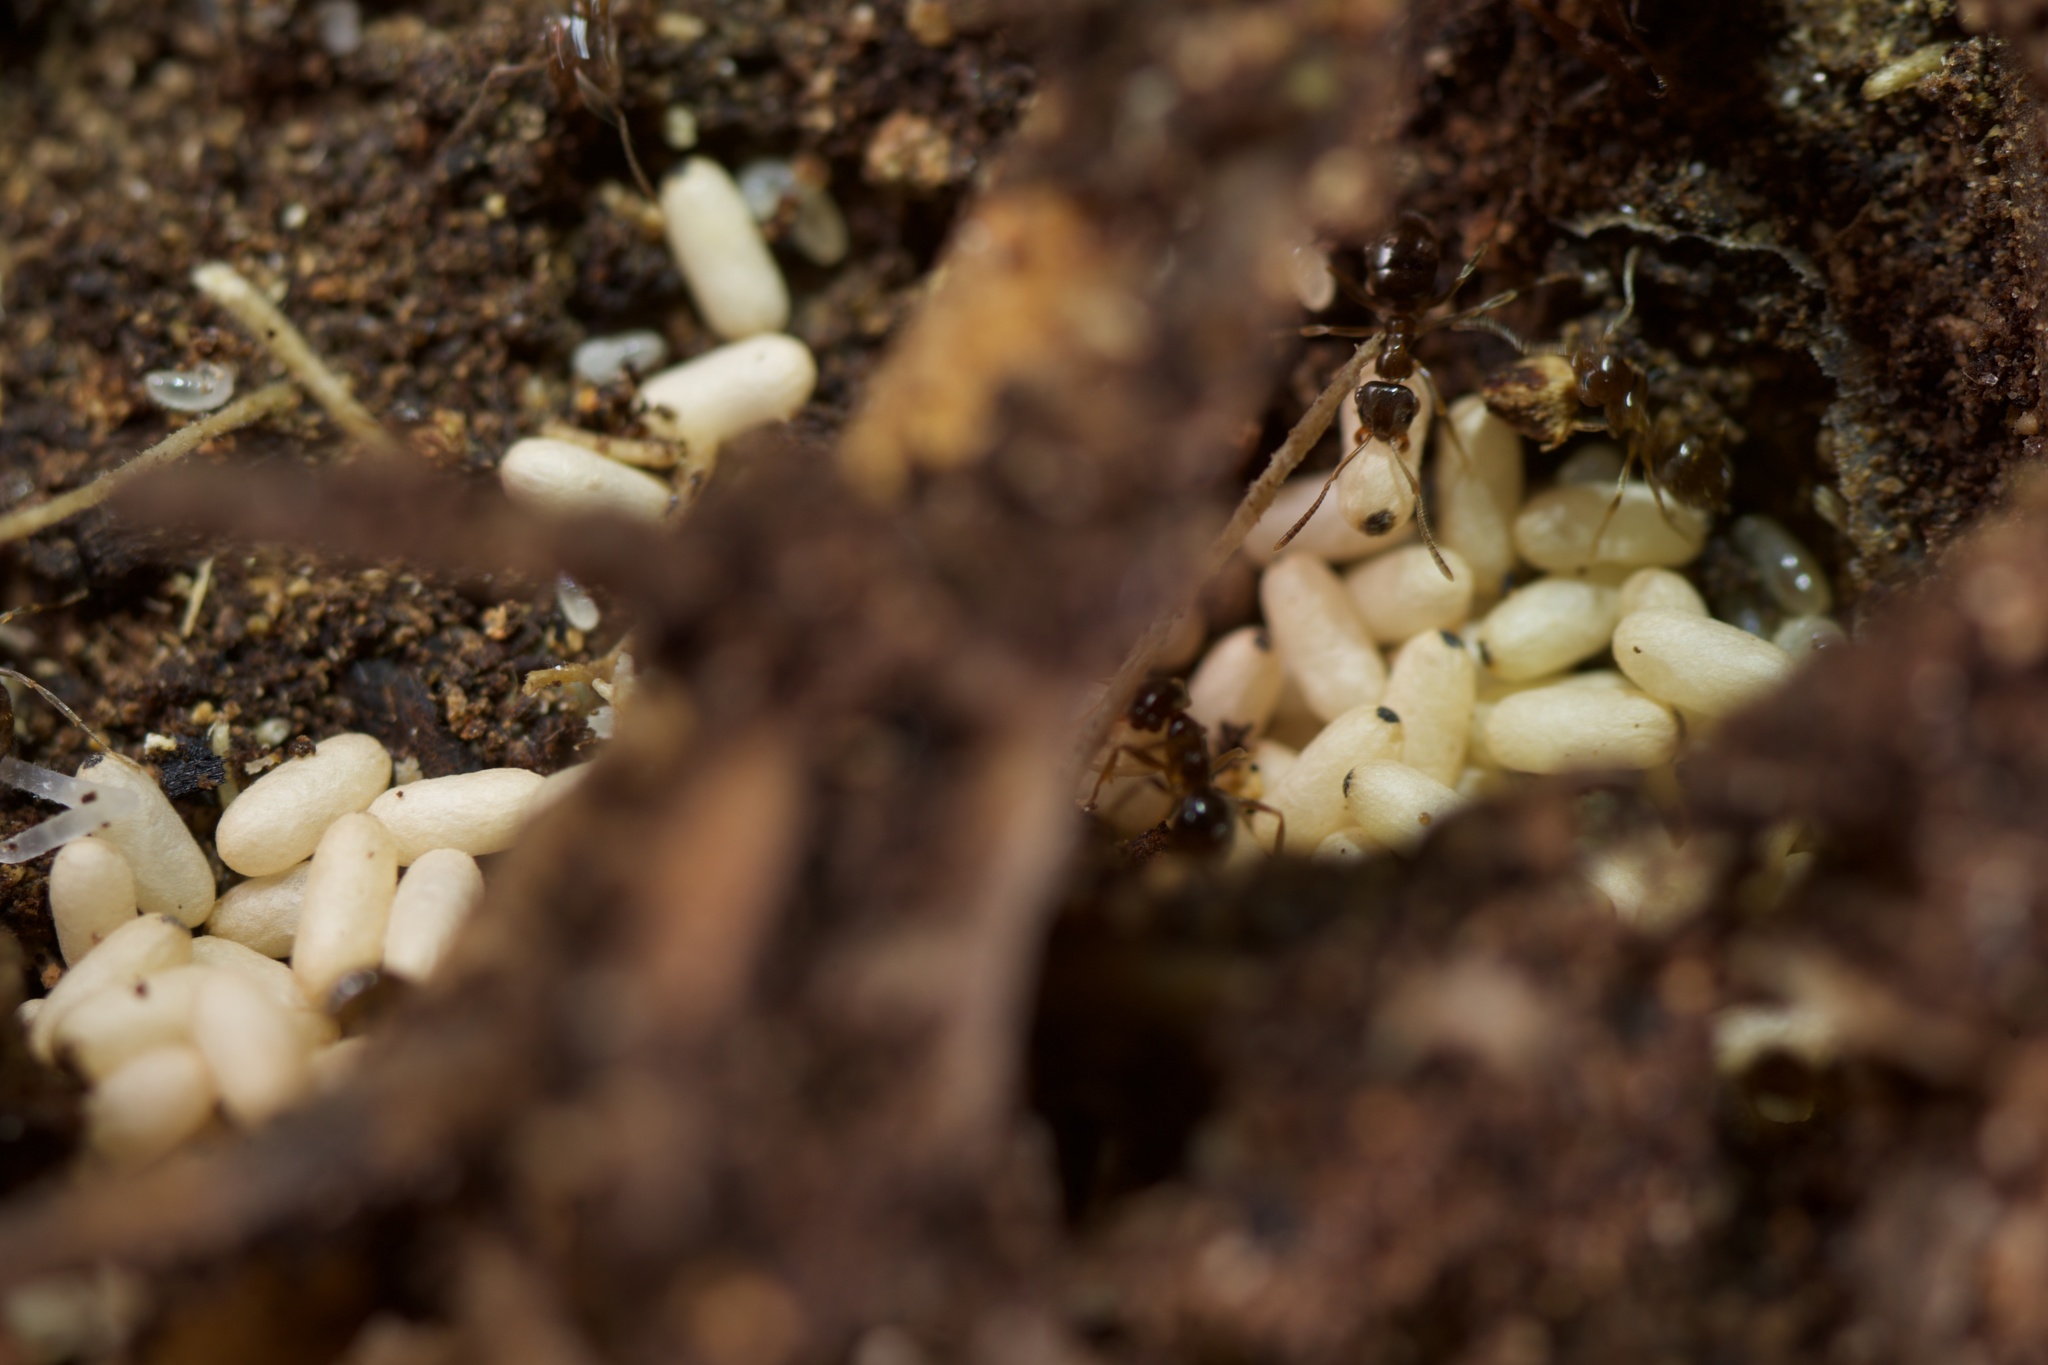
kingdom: Animalia
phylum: Arthropoda
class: Insecta
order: Hymenoptera
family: Formicidae
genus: Prolasius
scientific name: Prolasius advenus
